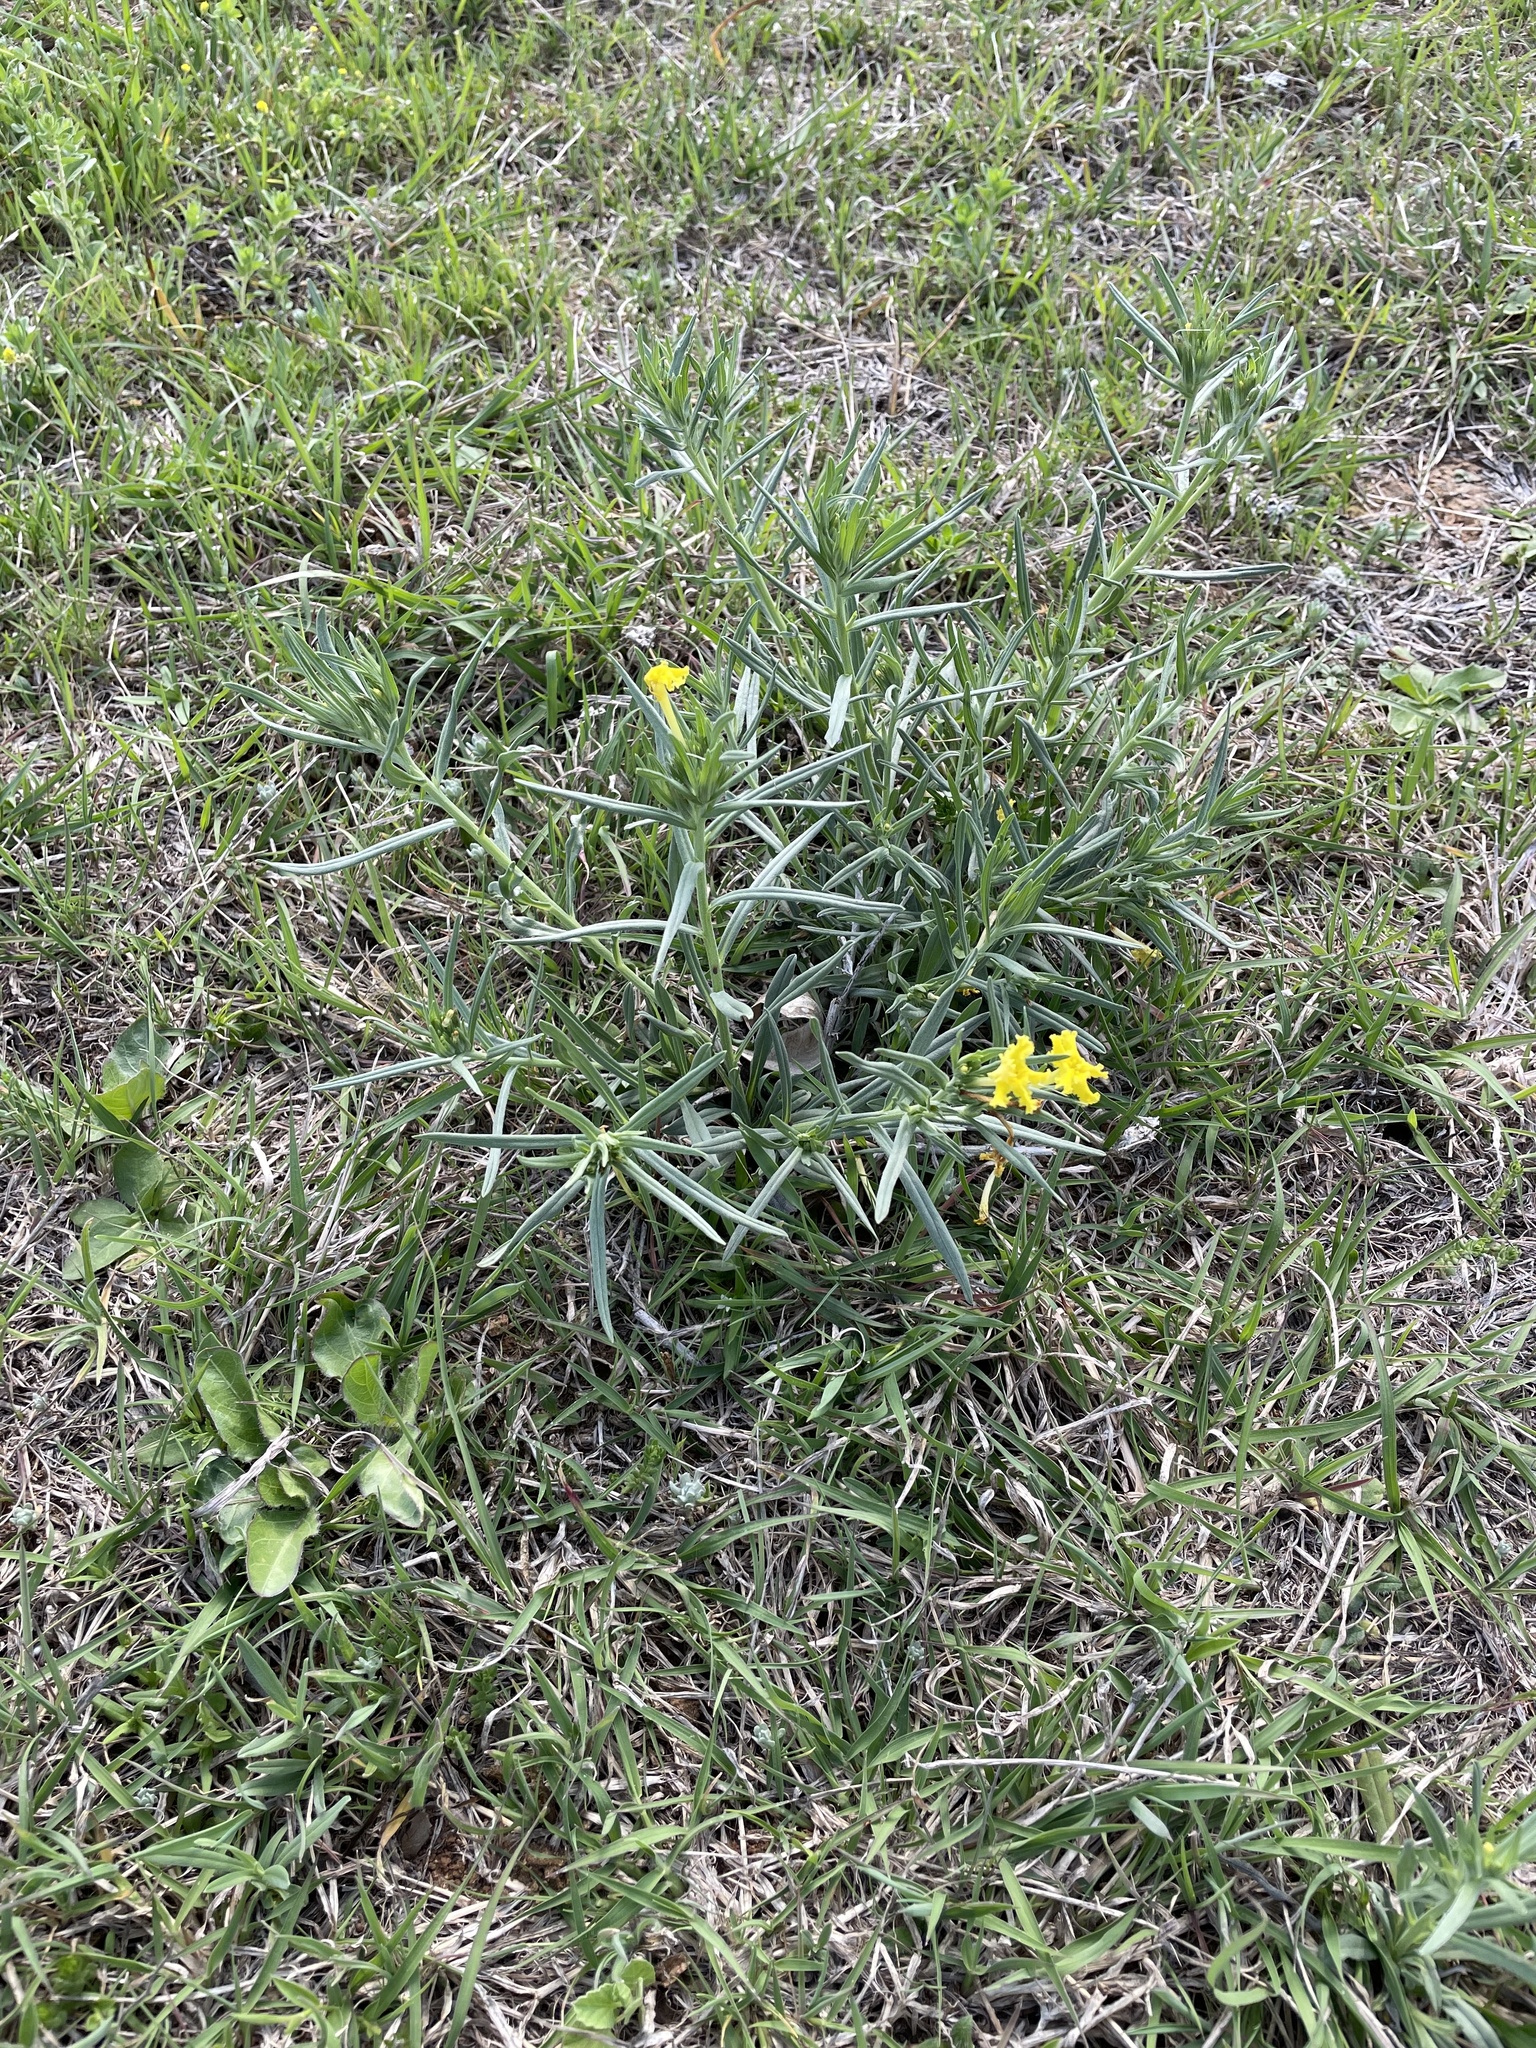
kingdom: Plantae
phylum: Tracheophyta
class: Magnoliopsida
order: Boraginales
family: Boraginaceae
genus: Lithospermum
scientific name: Lithospermum incisum
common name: Fringed gromwell
